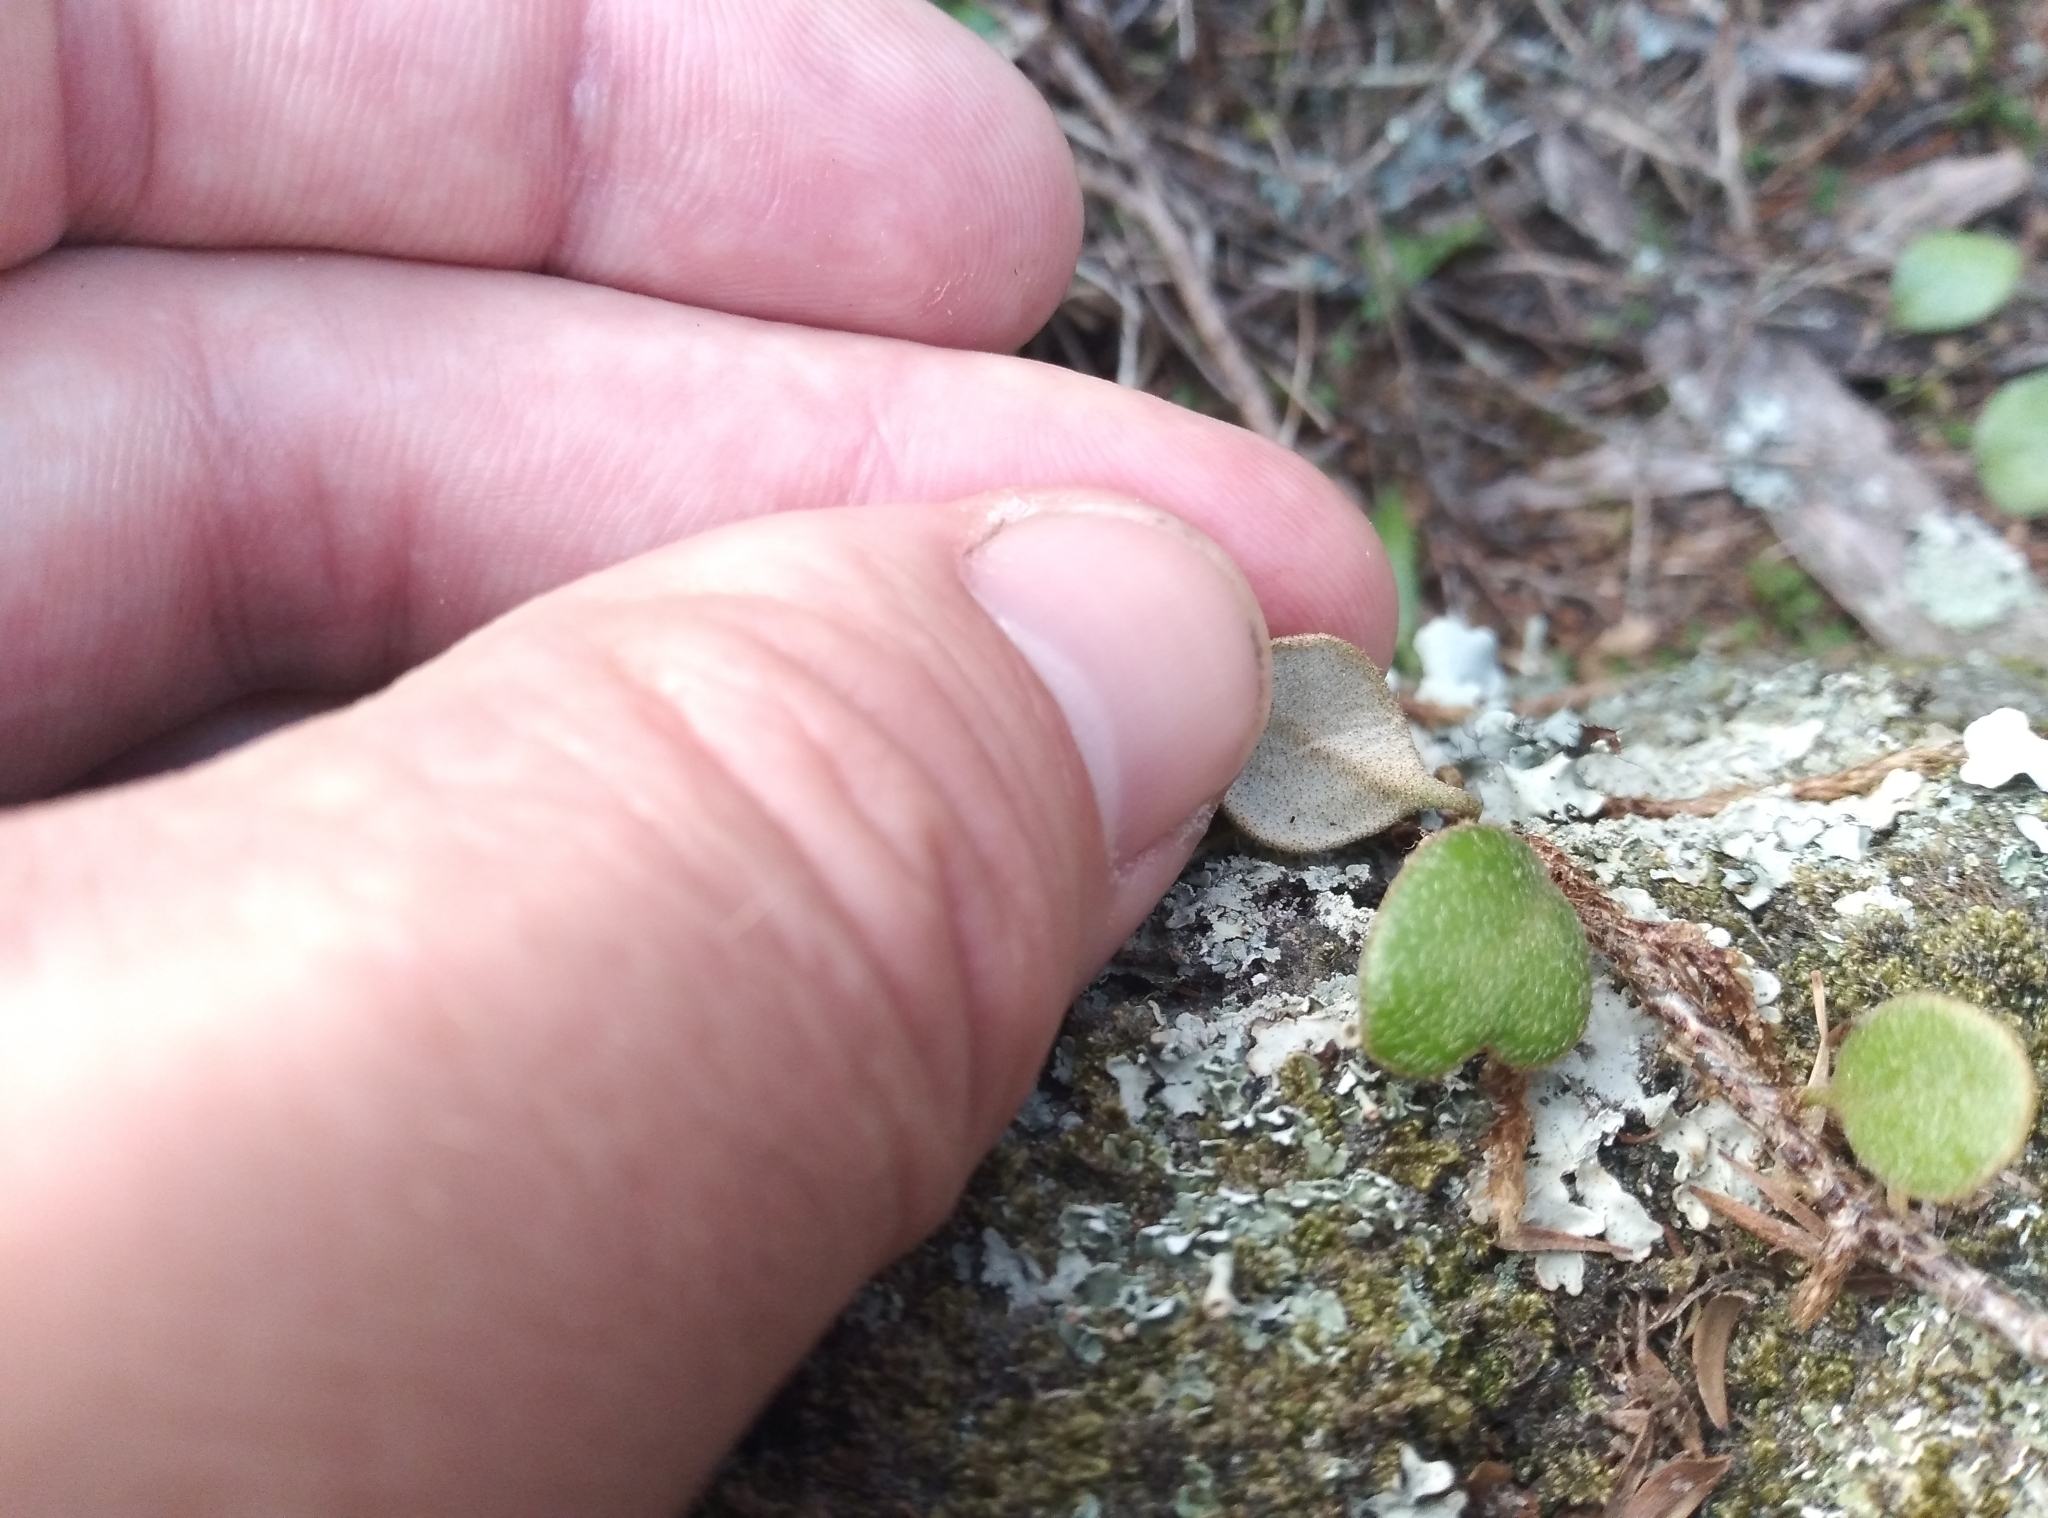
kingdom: Plantae
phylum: Tracheophyta
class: Polypodiopsida
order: Polypodiales
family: Polypodiaceae
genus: Pyrrosia
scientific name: Pyrrosia eleagnifolia
